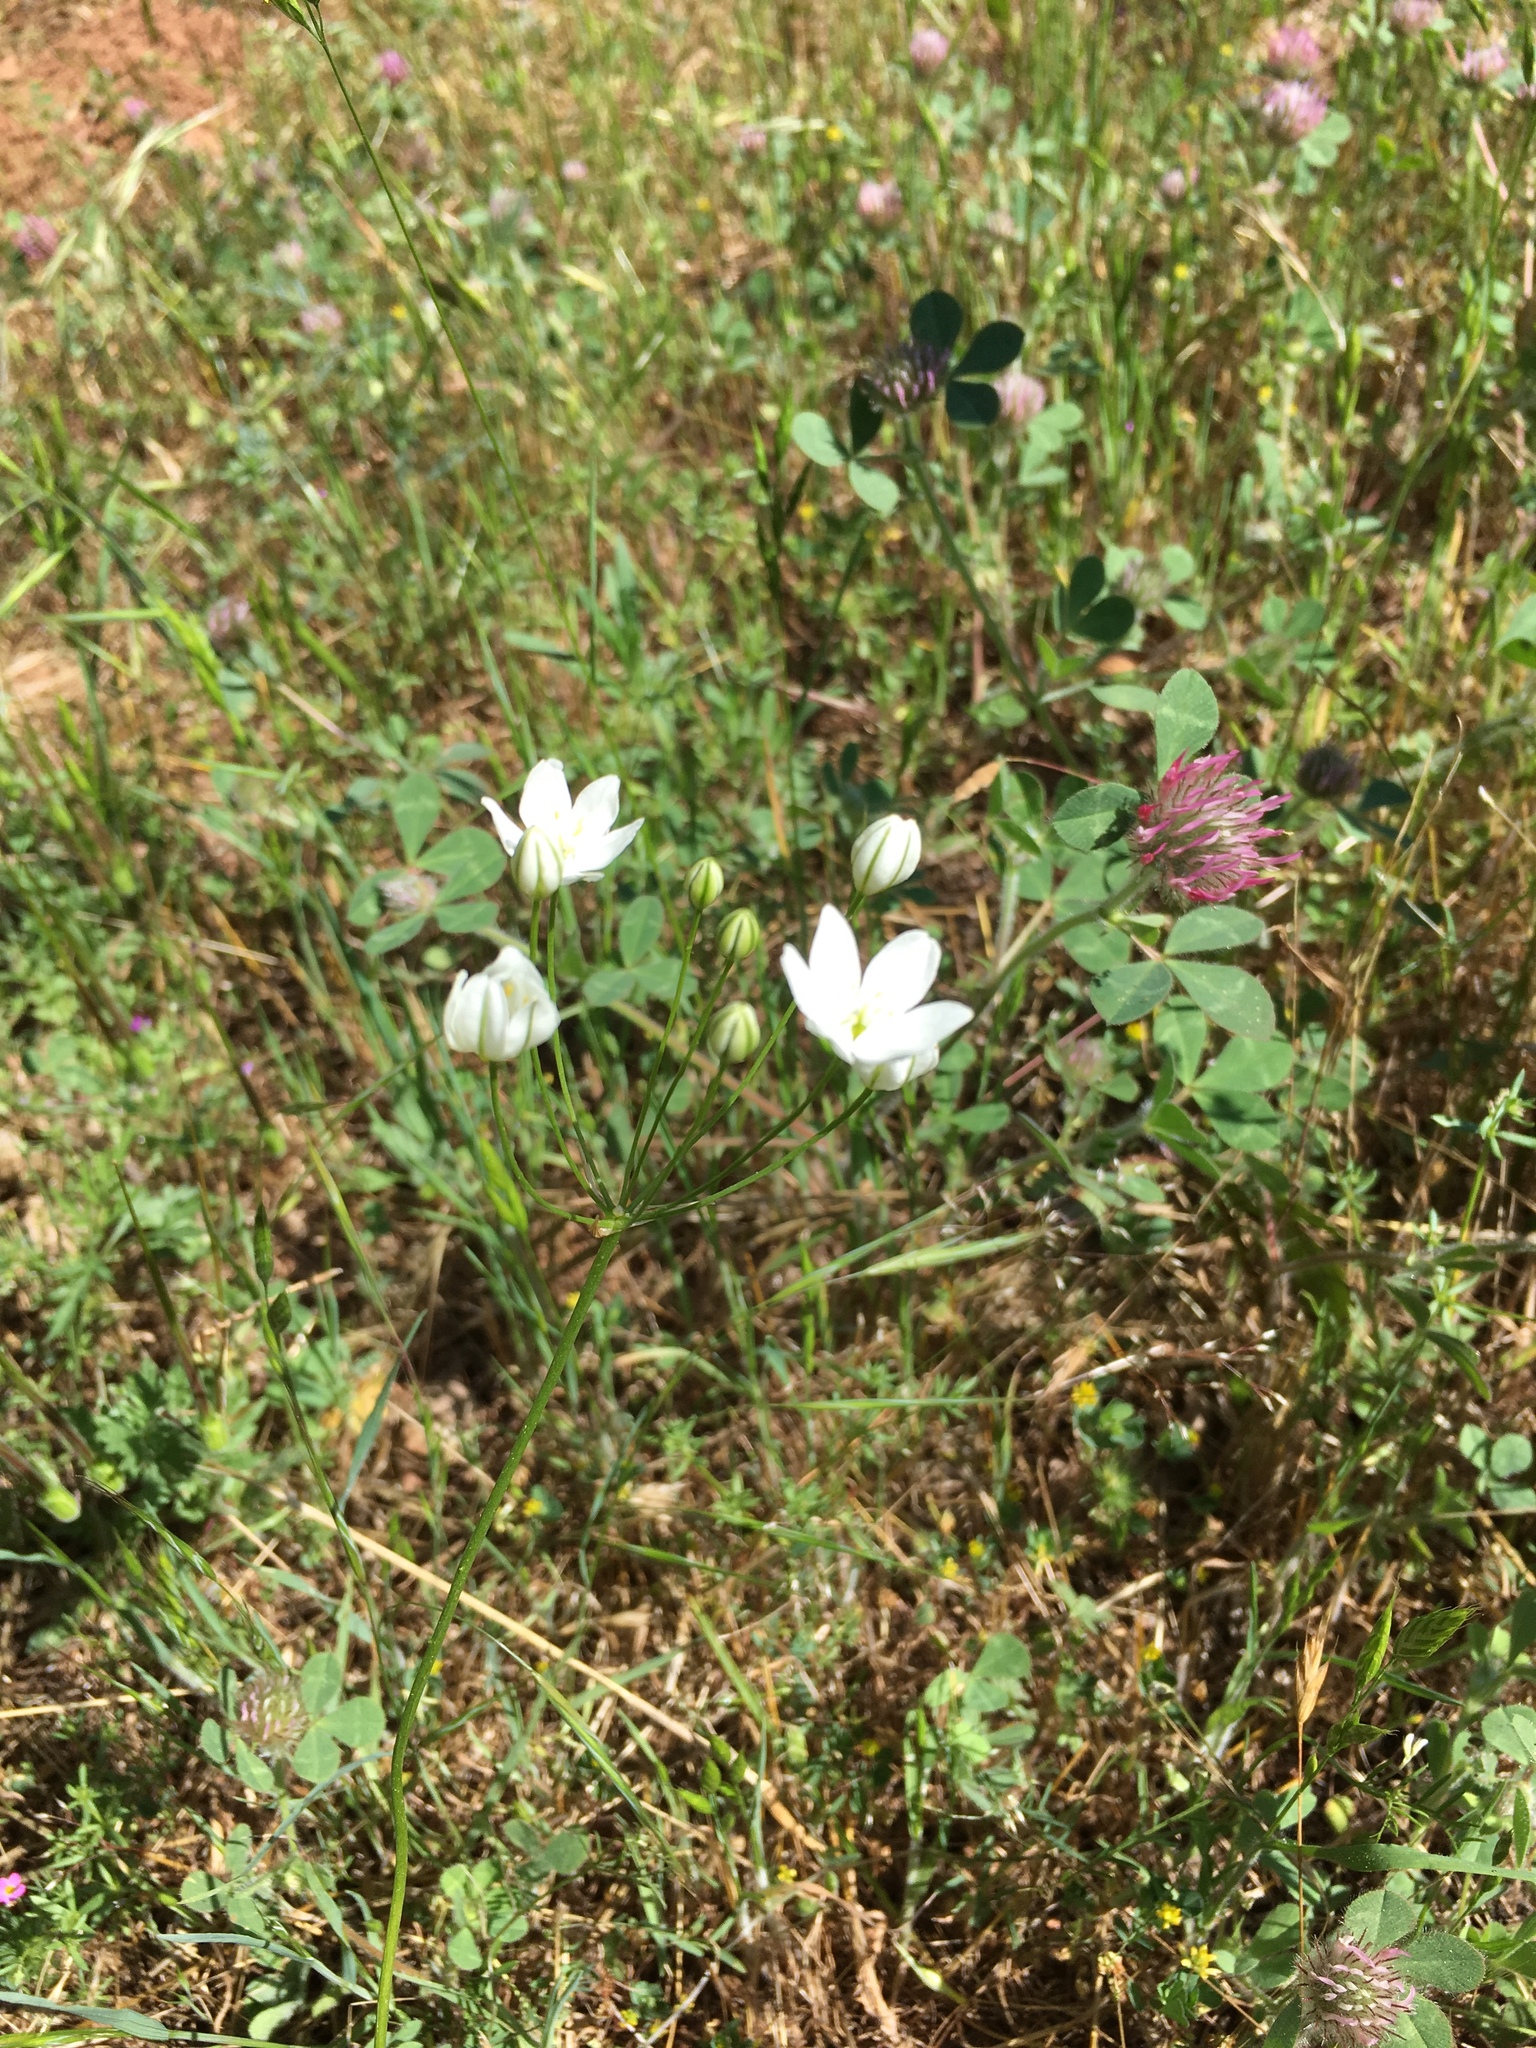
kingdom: Plantae
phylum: Tracheophyta
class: Liliopsida
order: Asparagales
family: Asparagaceae
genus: Triteleia
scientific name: Triteleia hyacinthina
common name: White brodiaea
